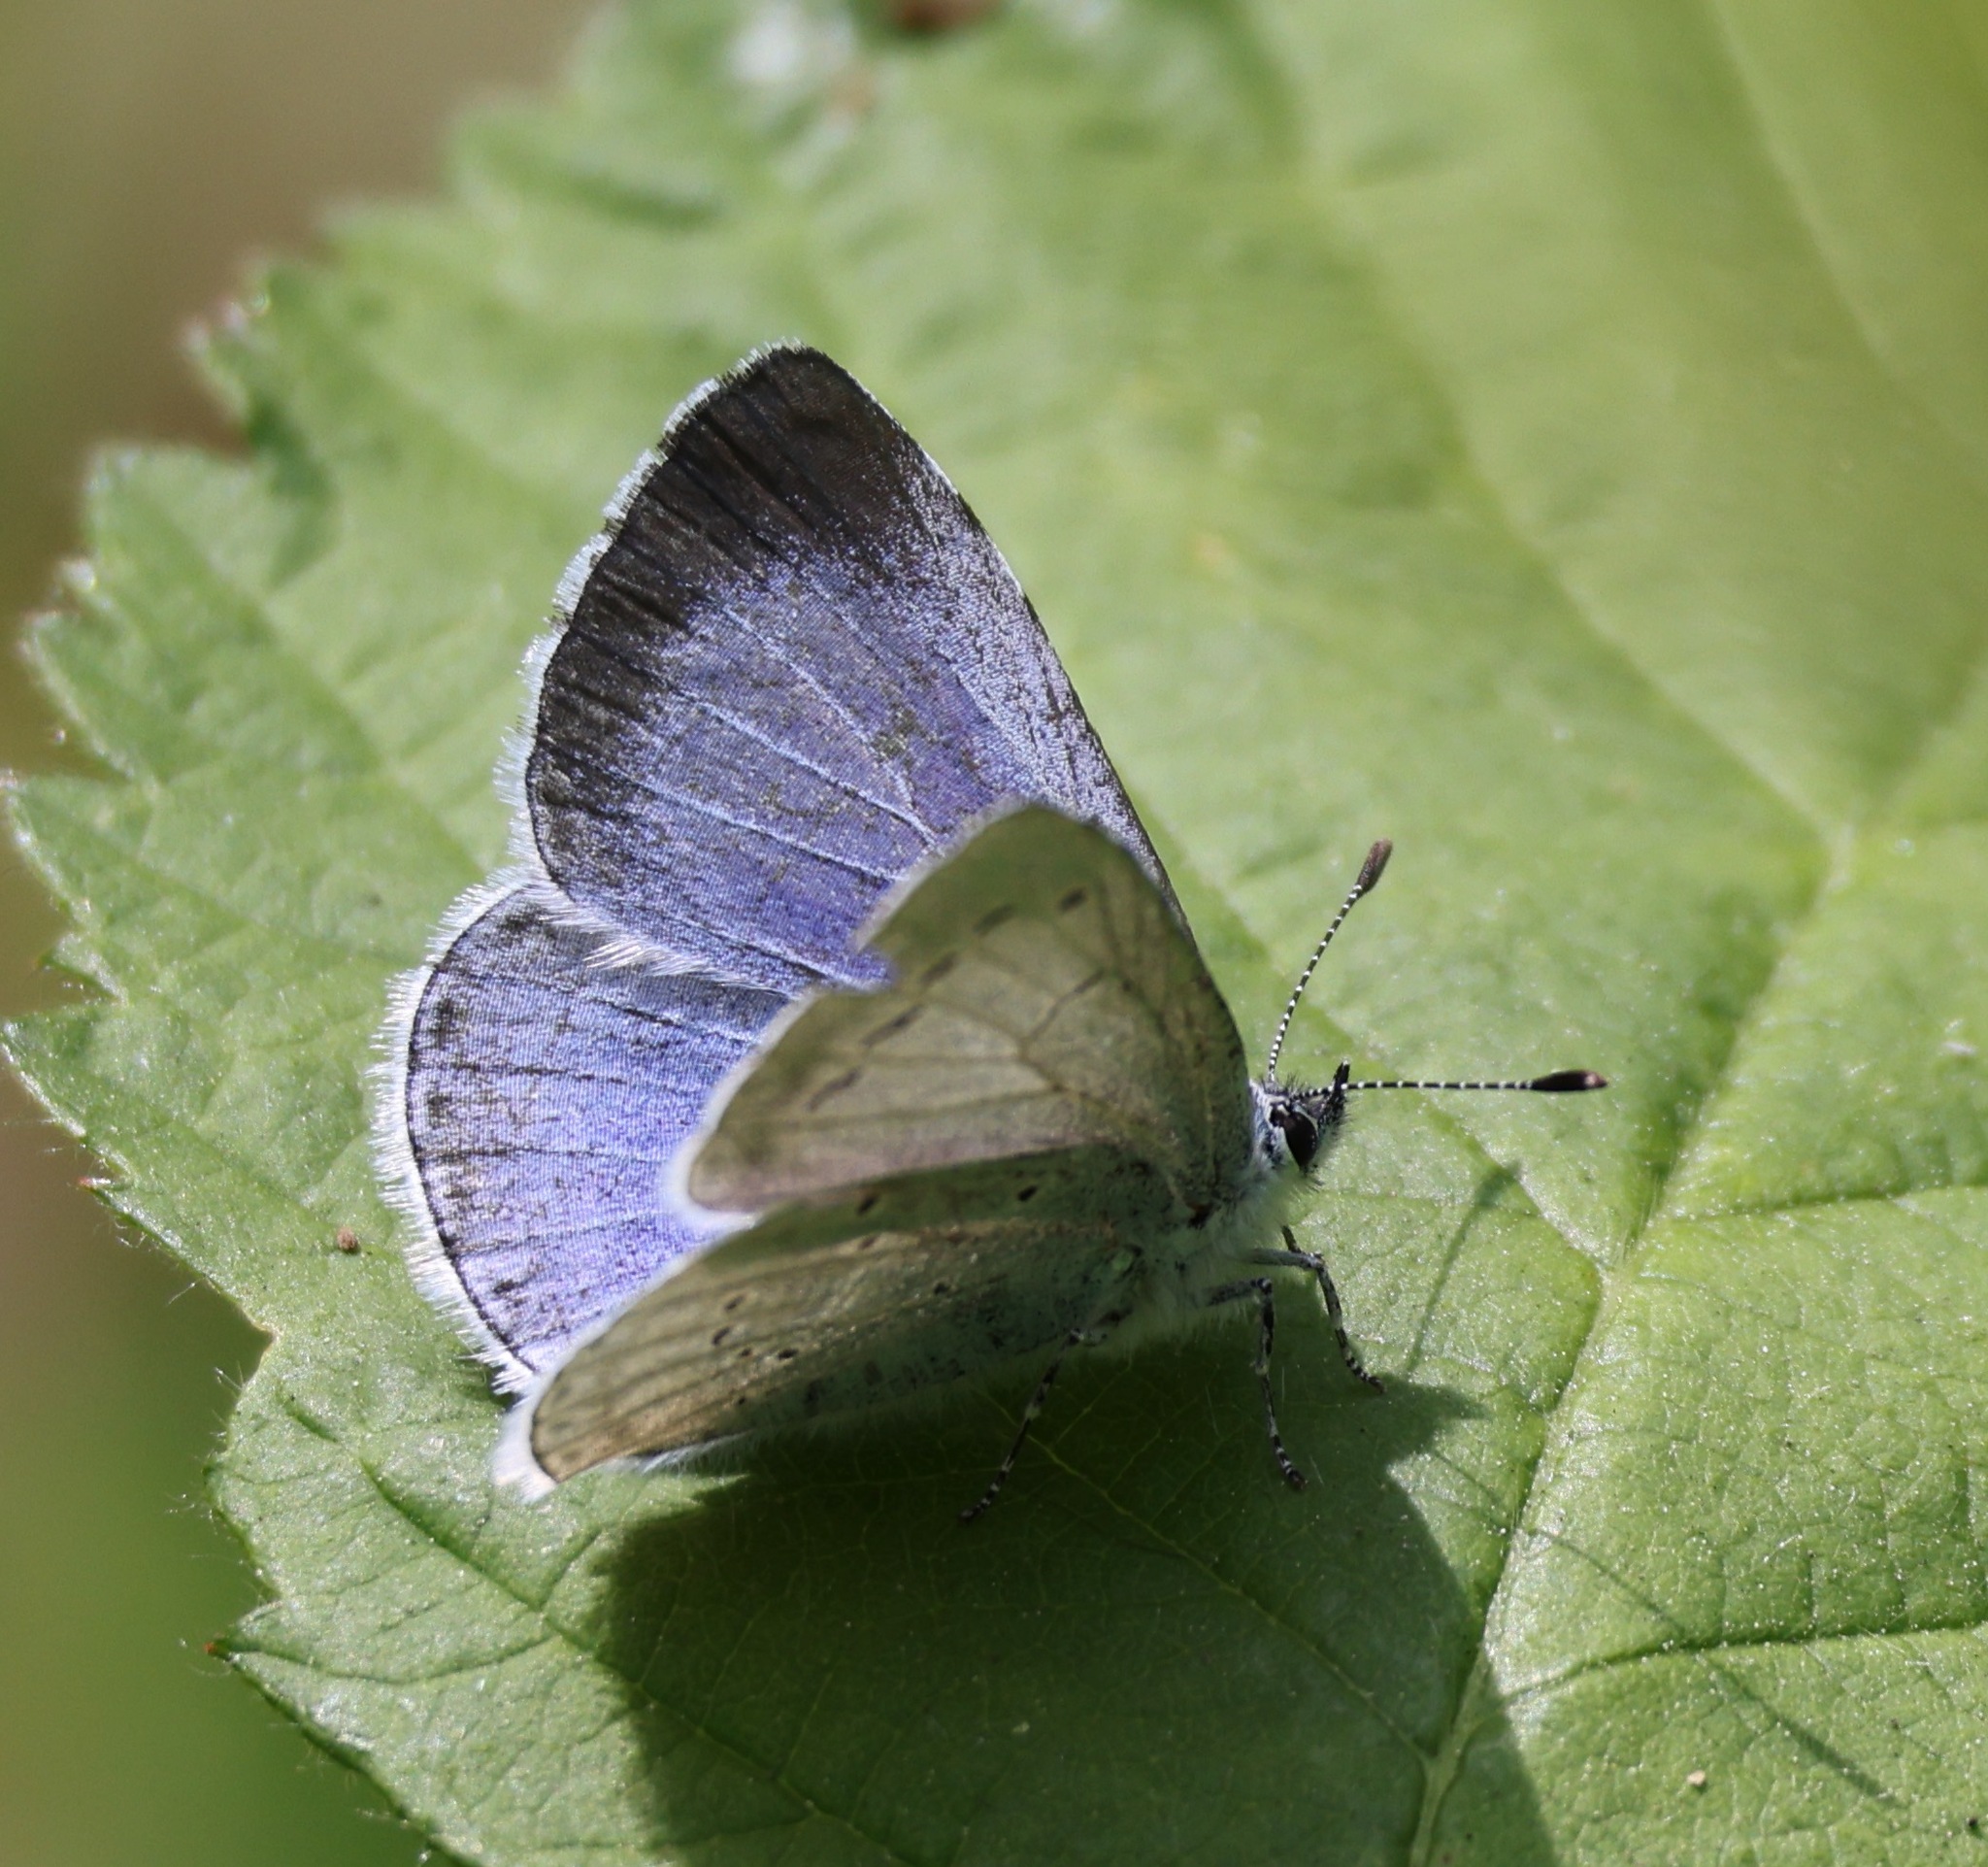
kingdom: Animalia
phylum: Arthropoda
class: Insecta
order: Lepidoptera
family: Lycaenidae
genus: Celastrina
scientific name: Celastrina argiolus
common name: Holly blue
